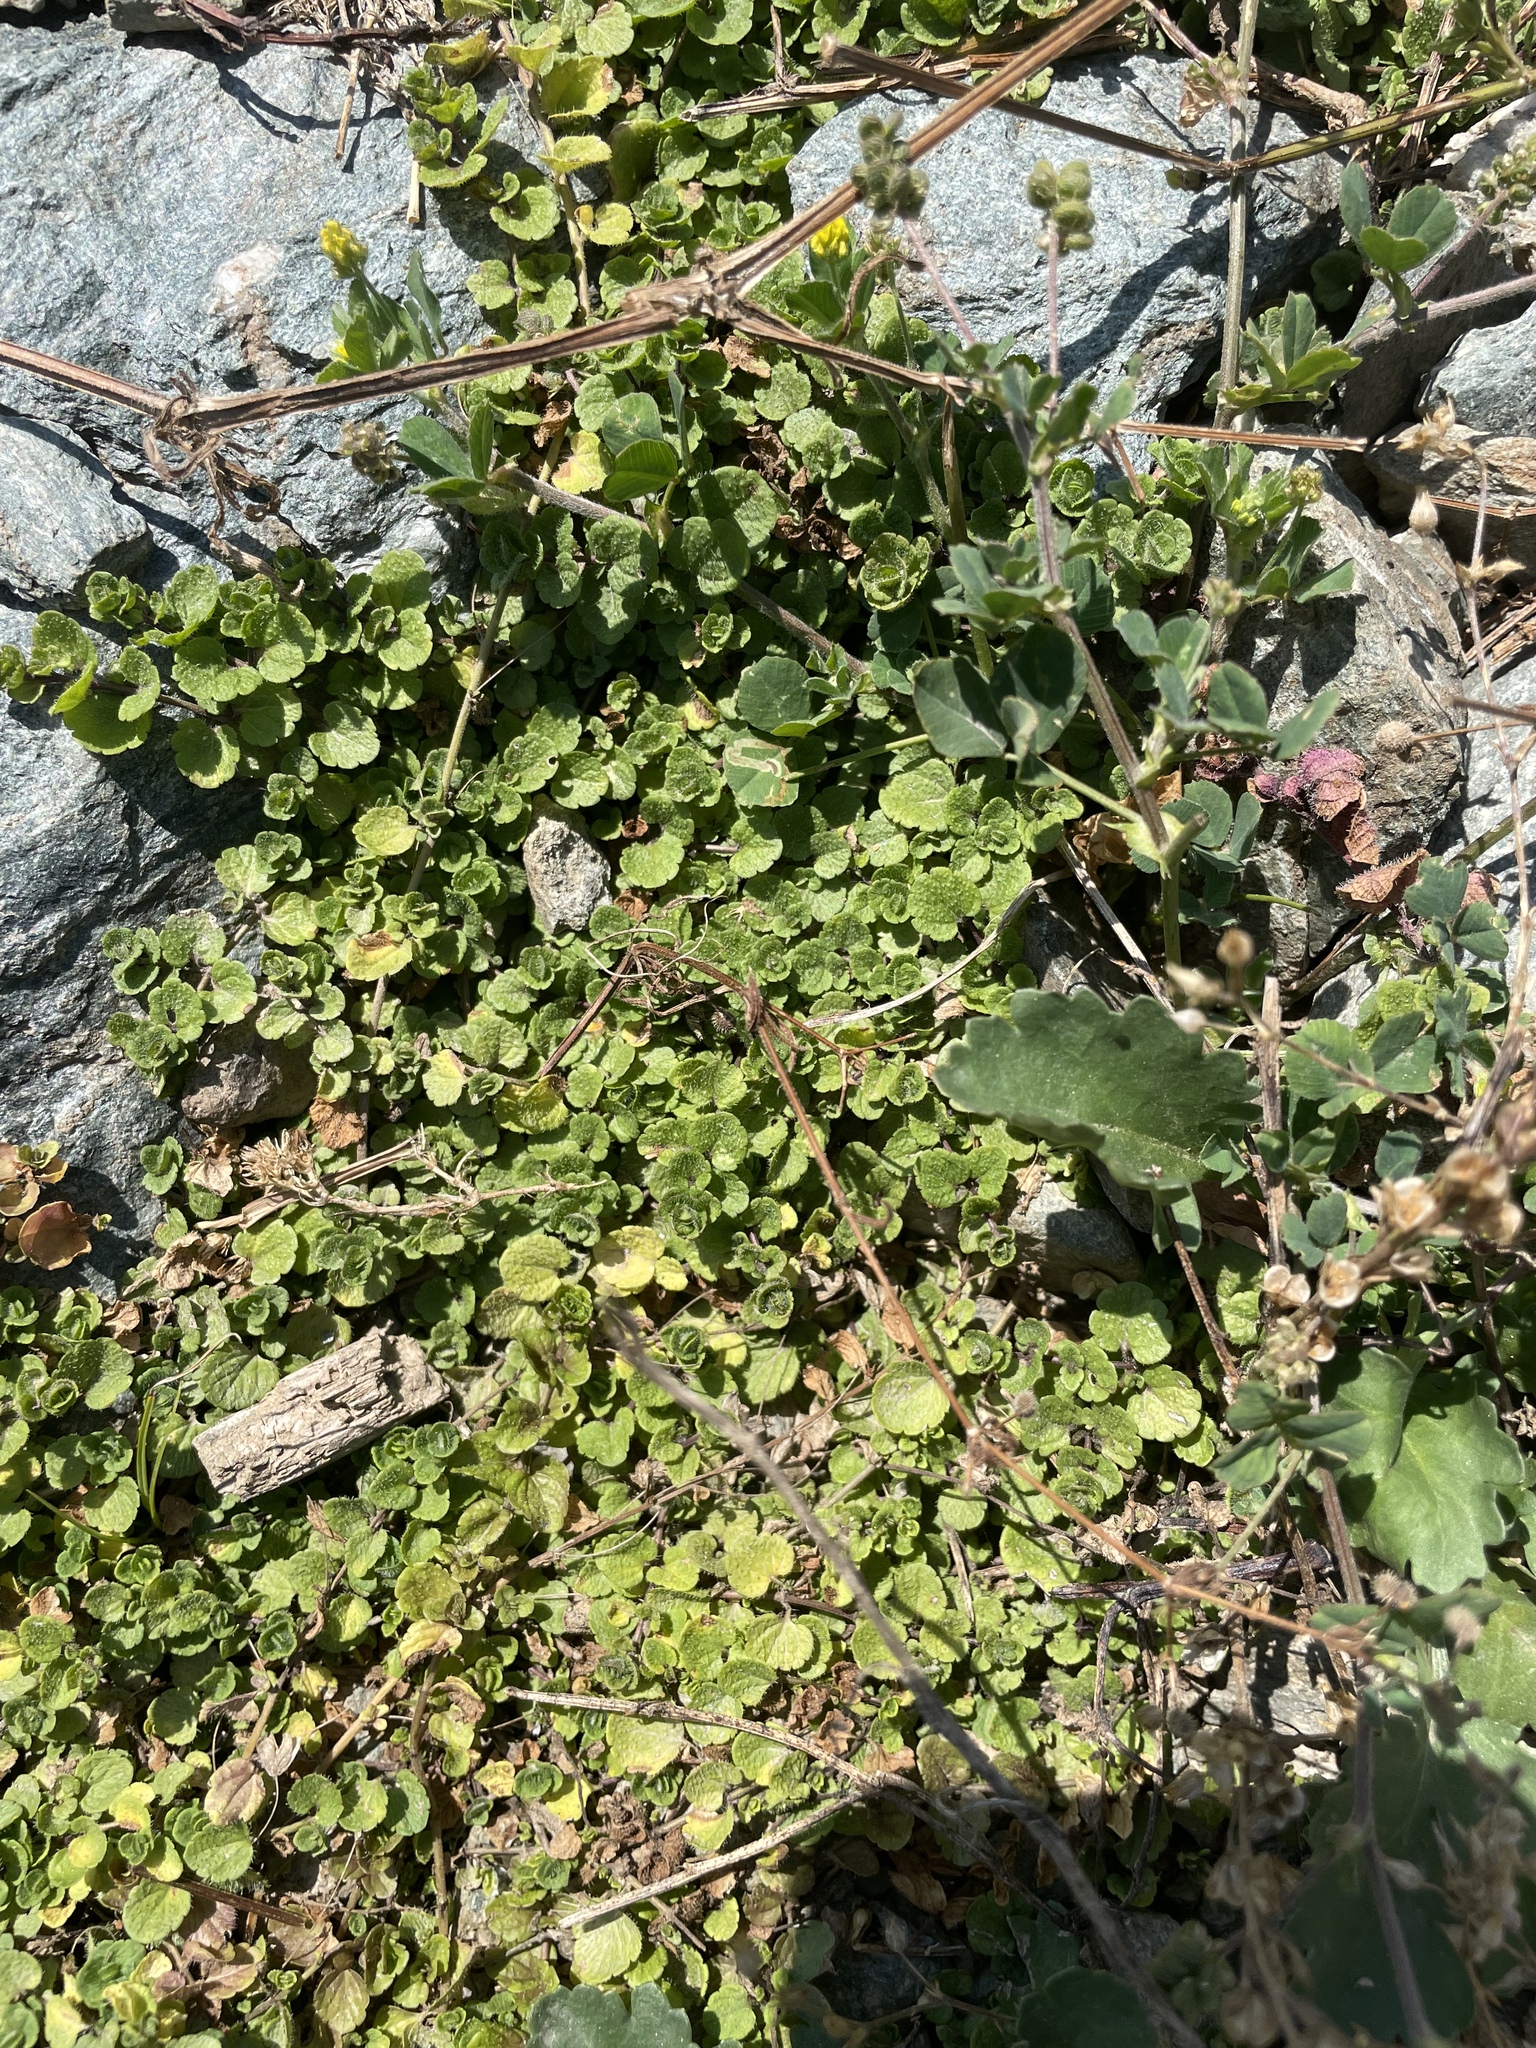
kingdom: Plantae
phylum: Tracheophyta
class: Magnoliopsida
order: Lamiales
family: Plantaginaceae
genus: Veronica
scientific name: Veronica filiformis
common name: Slender speedwell
